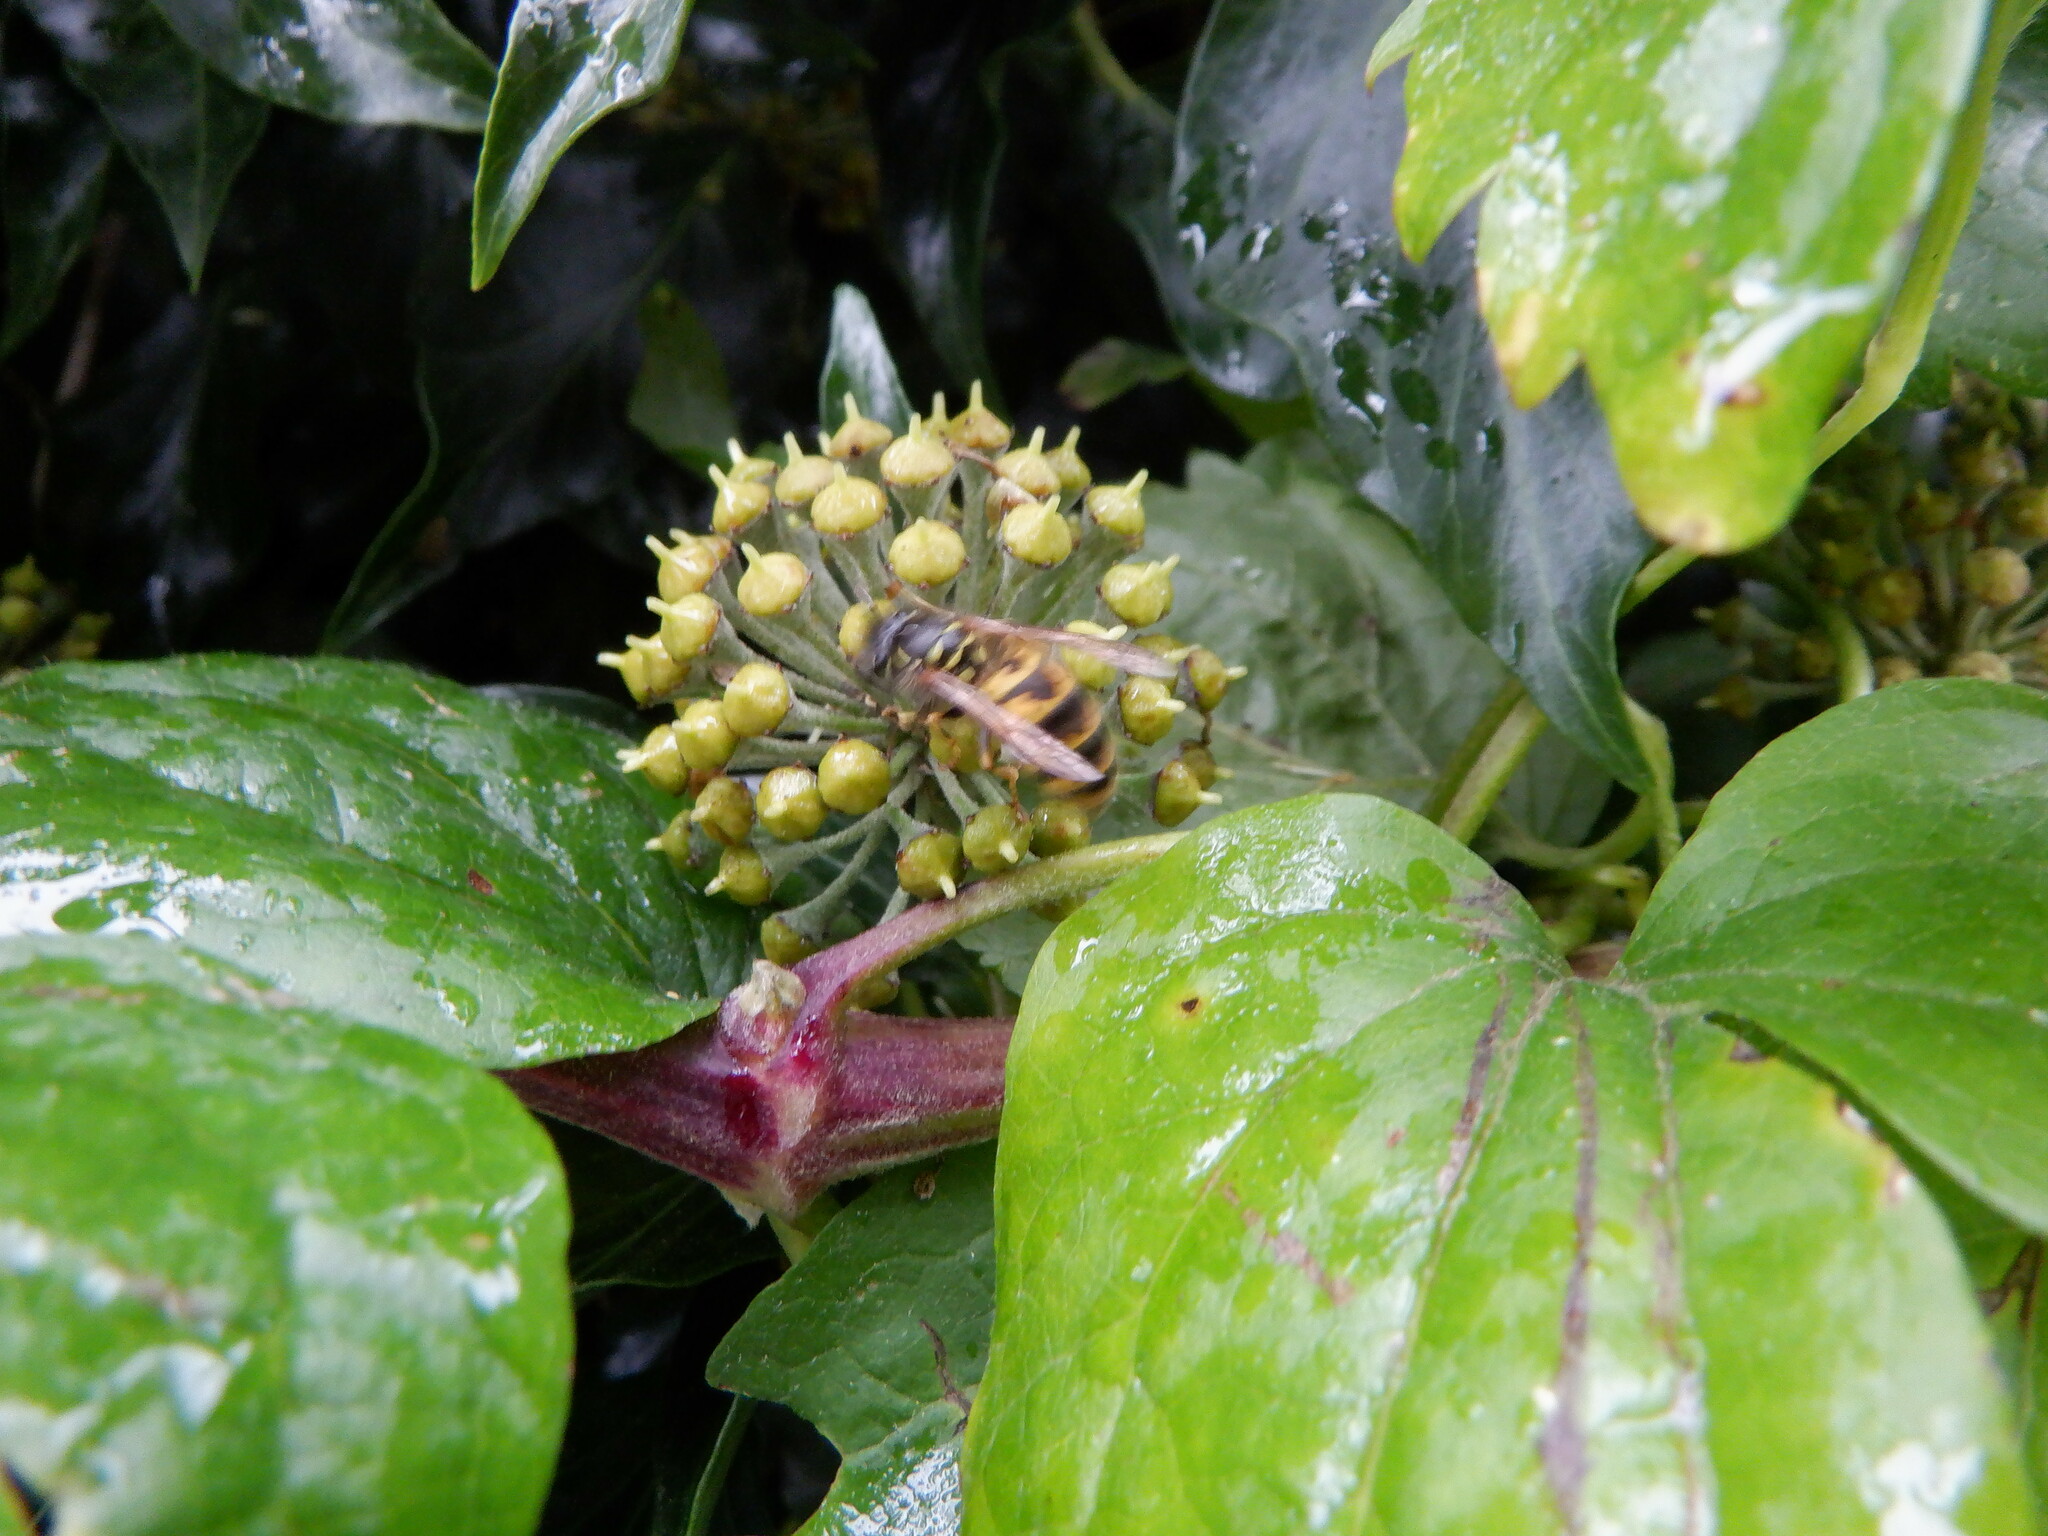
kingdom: Animalia
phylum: Arthropoda
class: Insecta
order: Hymenoptera
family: Vespidae
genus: Vespula
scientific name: Vespula vulgaris
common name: Common wasp
